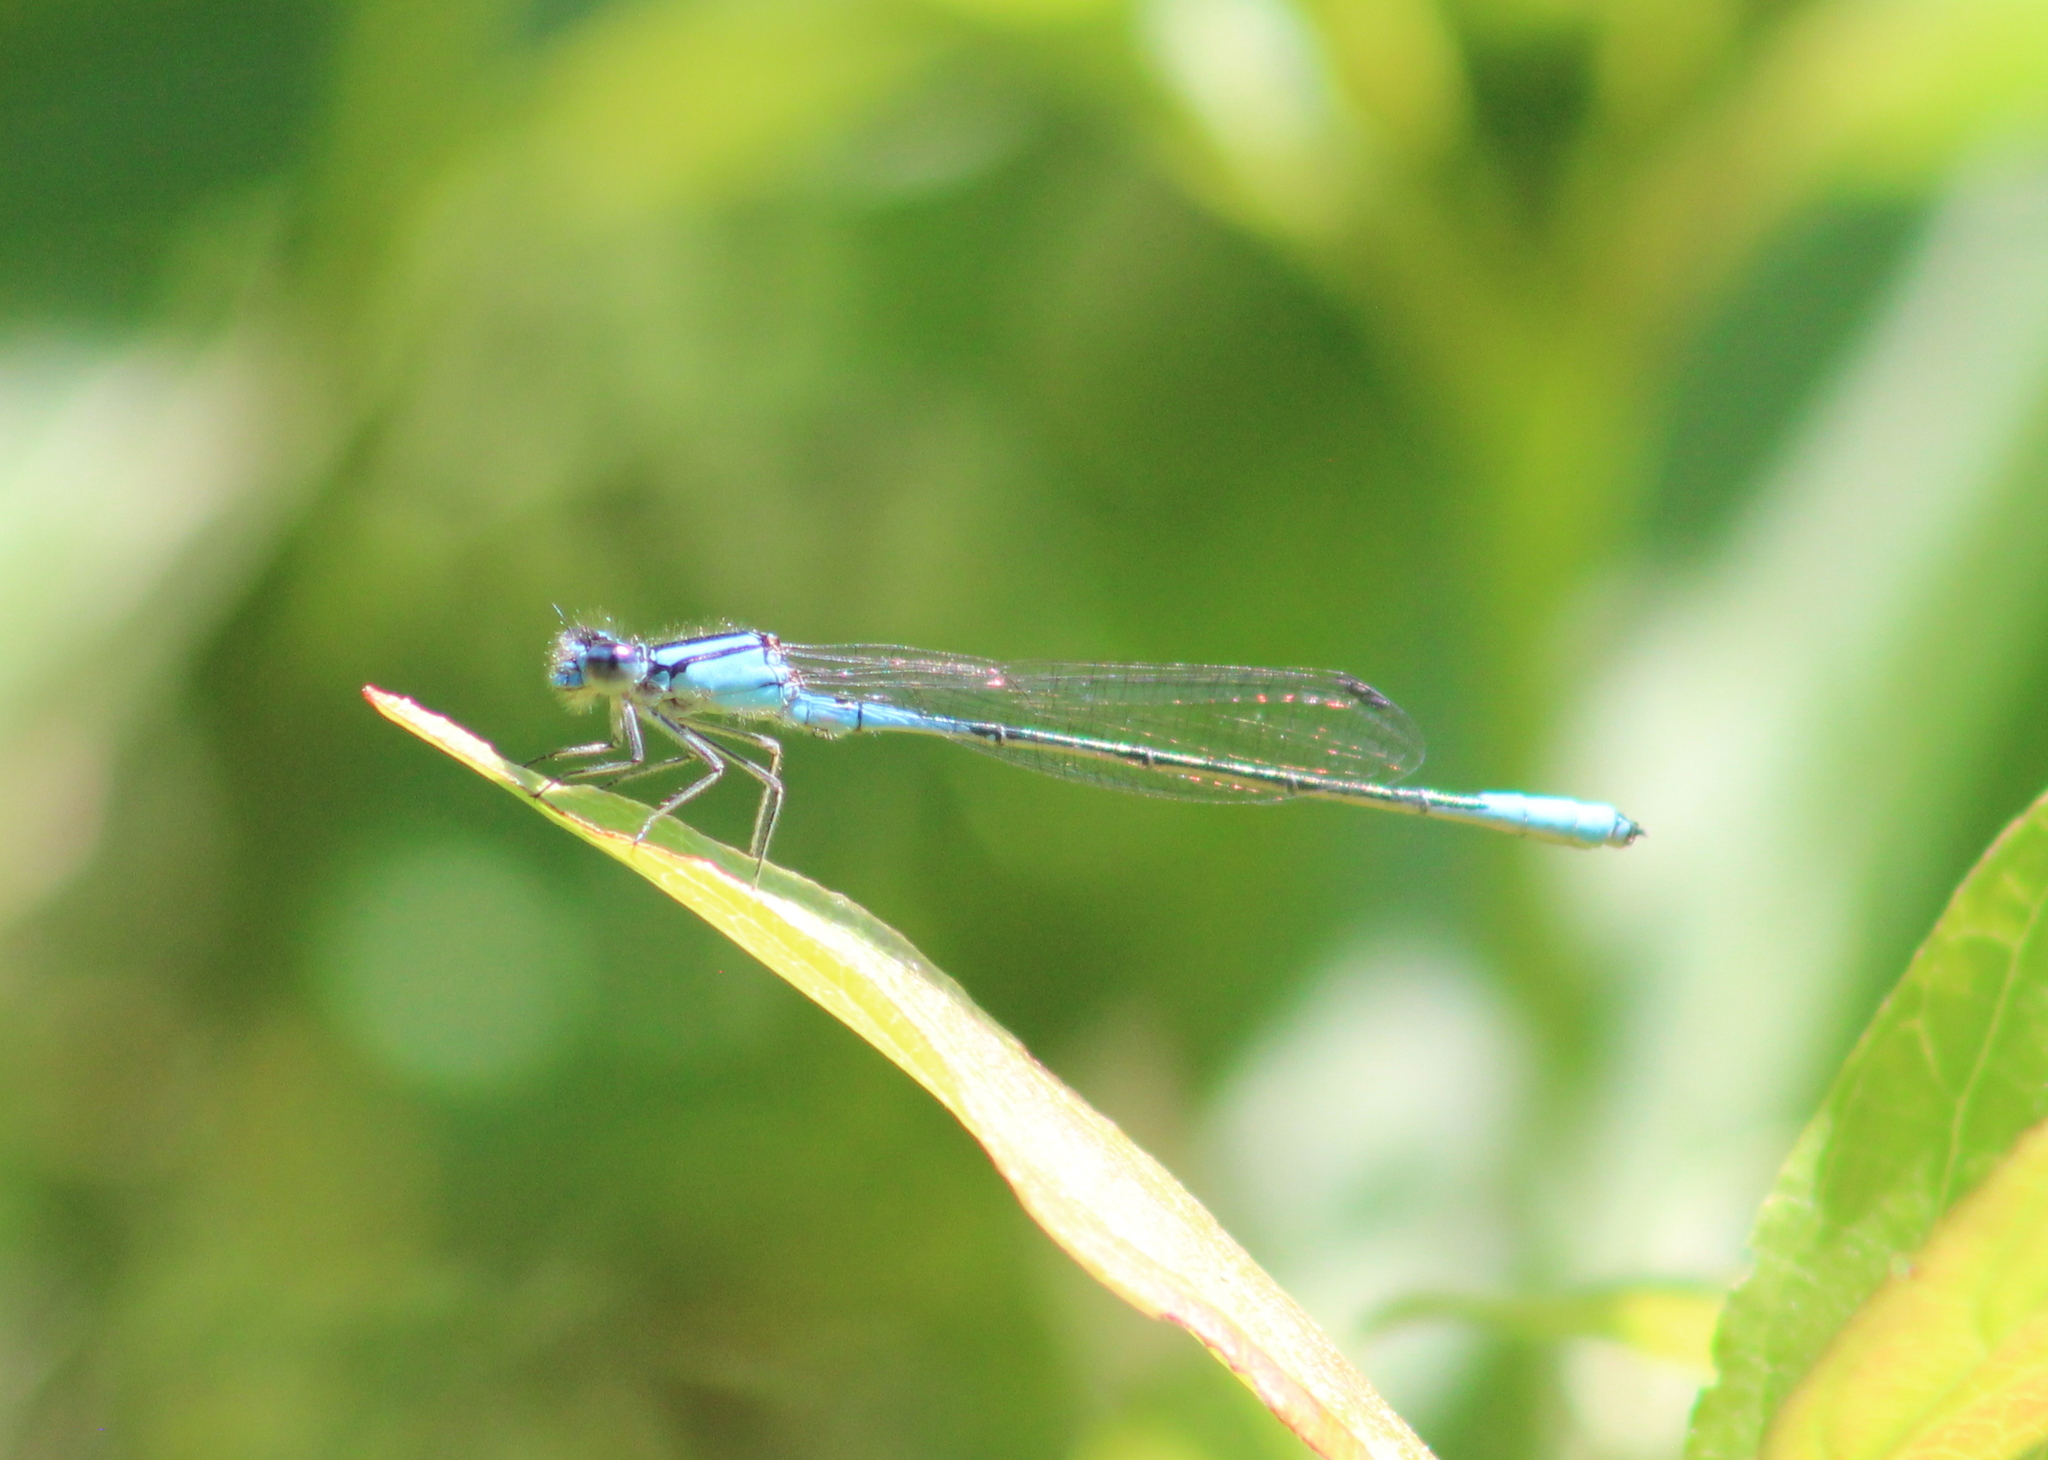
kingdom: Animalia
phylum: Arthropoda
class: Insecta
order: Odonata
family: Coenagrionidae
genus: Enallagma
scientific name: Enallagma aspersum
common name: Azure bluet
